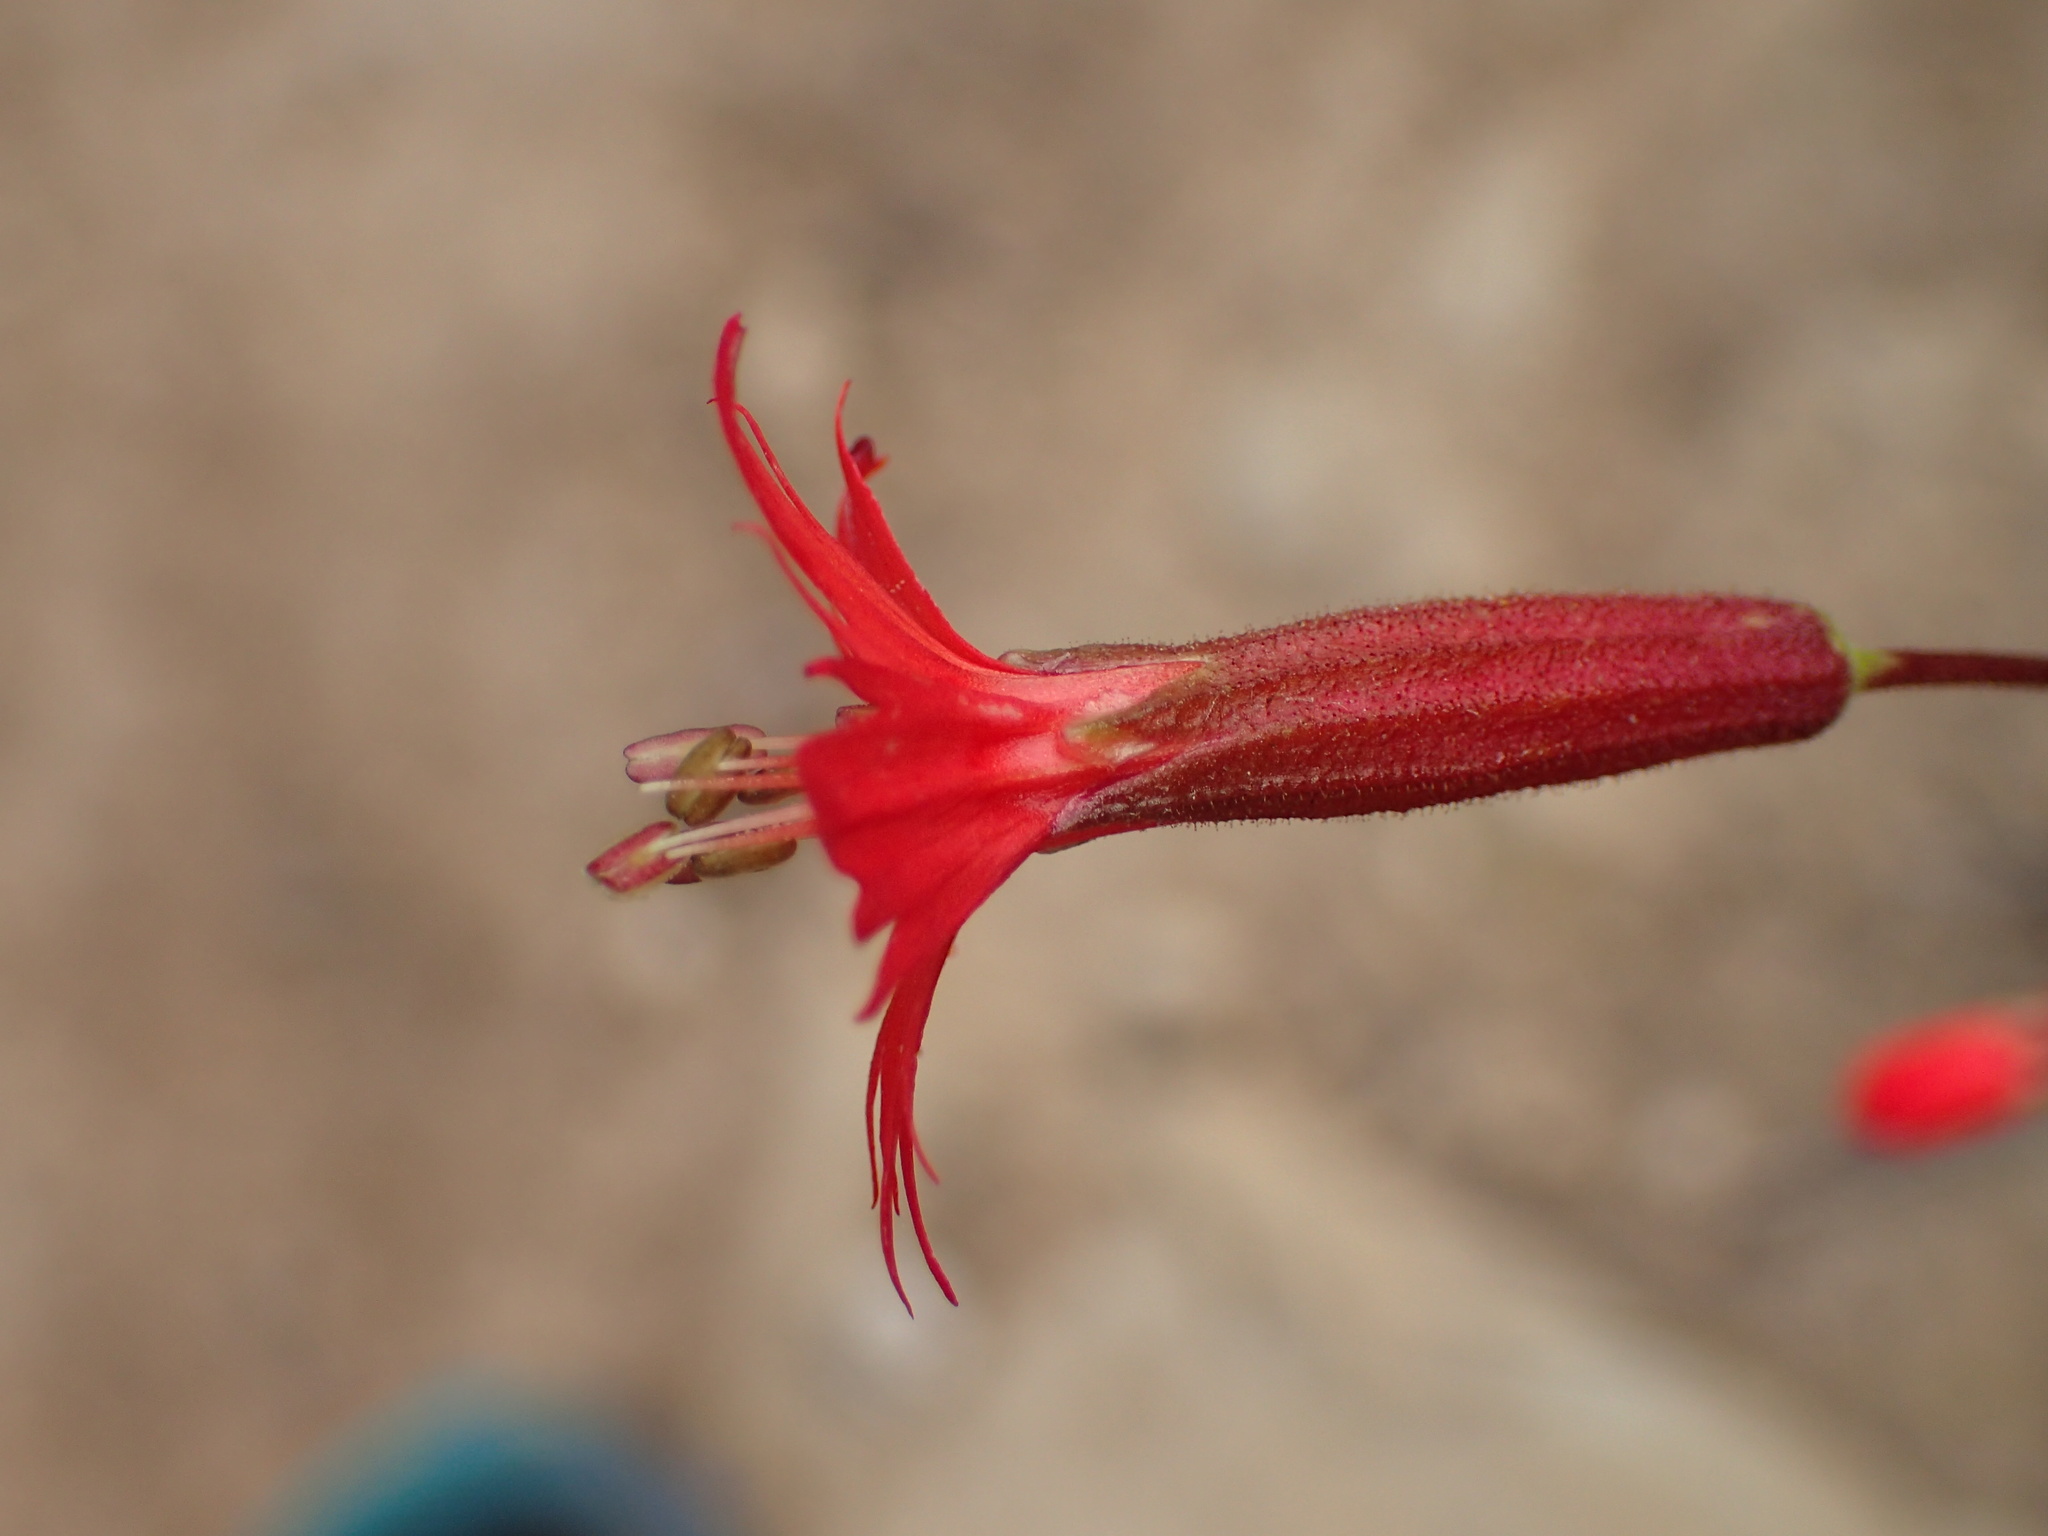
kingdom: Plantae
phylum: Tracheophyta
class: Magnoliopsida
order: Caryophyllales
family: Caryophyllaceae
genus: Silene
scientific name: Silene laciniata
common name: Indian-pink
